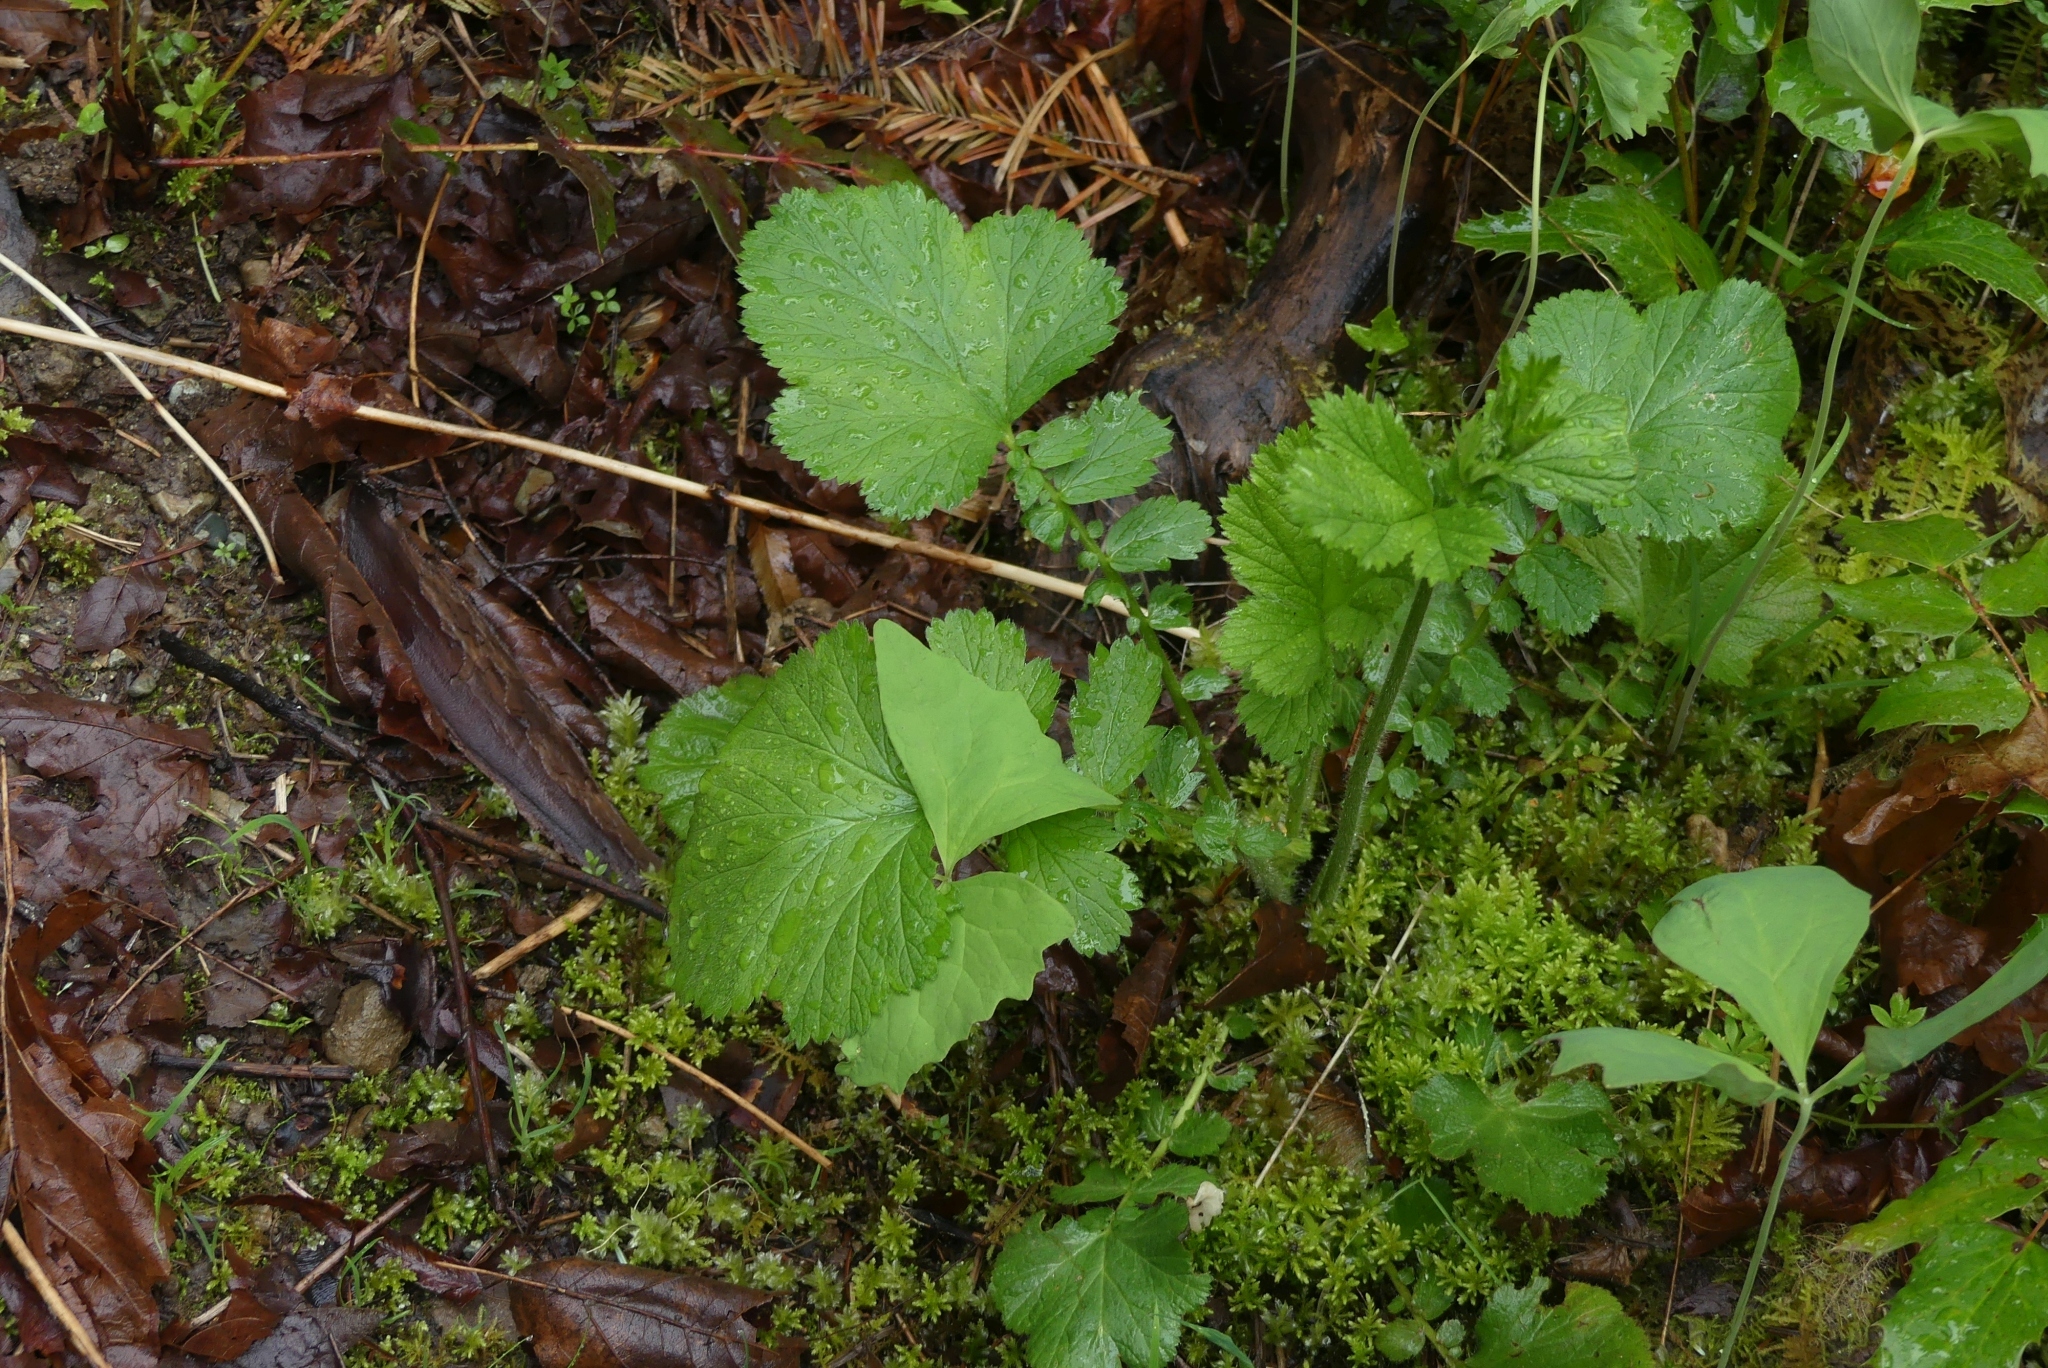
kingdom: Plantae
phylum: Tracheophyta
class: Magnoliopsida
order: Rosales
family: Rosaceae
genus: Geum
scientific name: Geum macrophyllum
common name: Large-leaved avens
